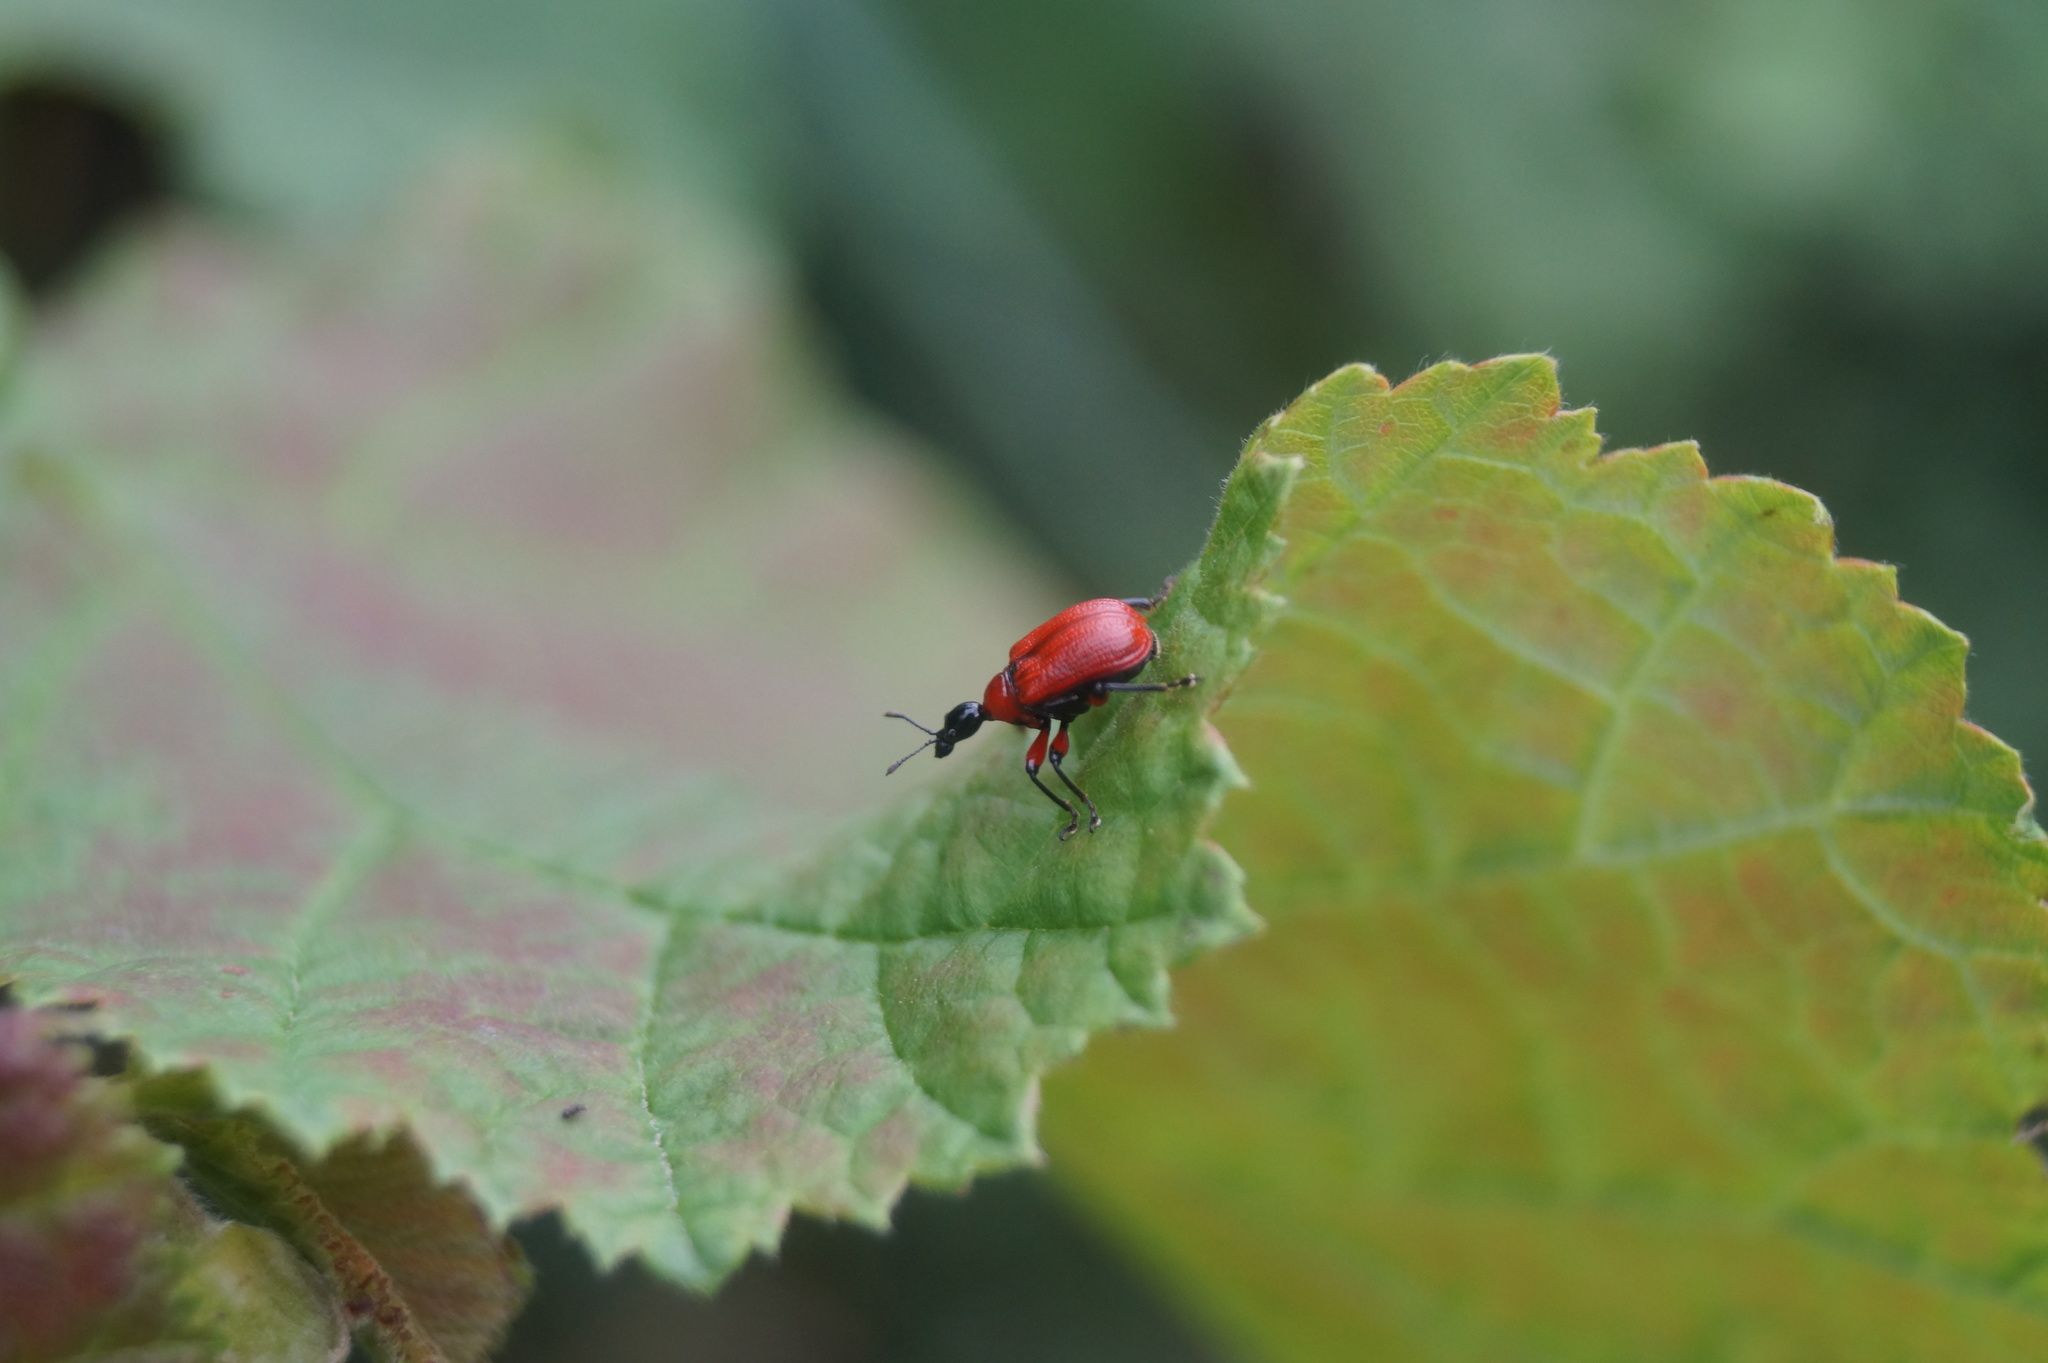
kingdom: Animalia
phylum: Arthropoda
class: Insecta
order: Coleoptera
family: Attelabidae
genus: Apoderus
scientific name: Apoderus coryli
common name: Hazel leaf roller
